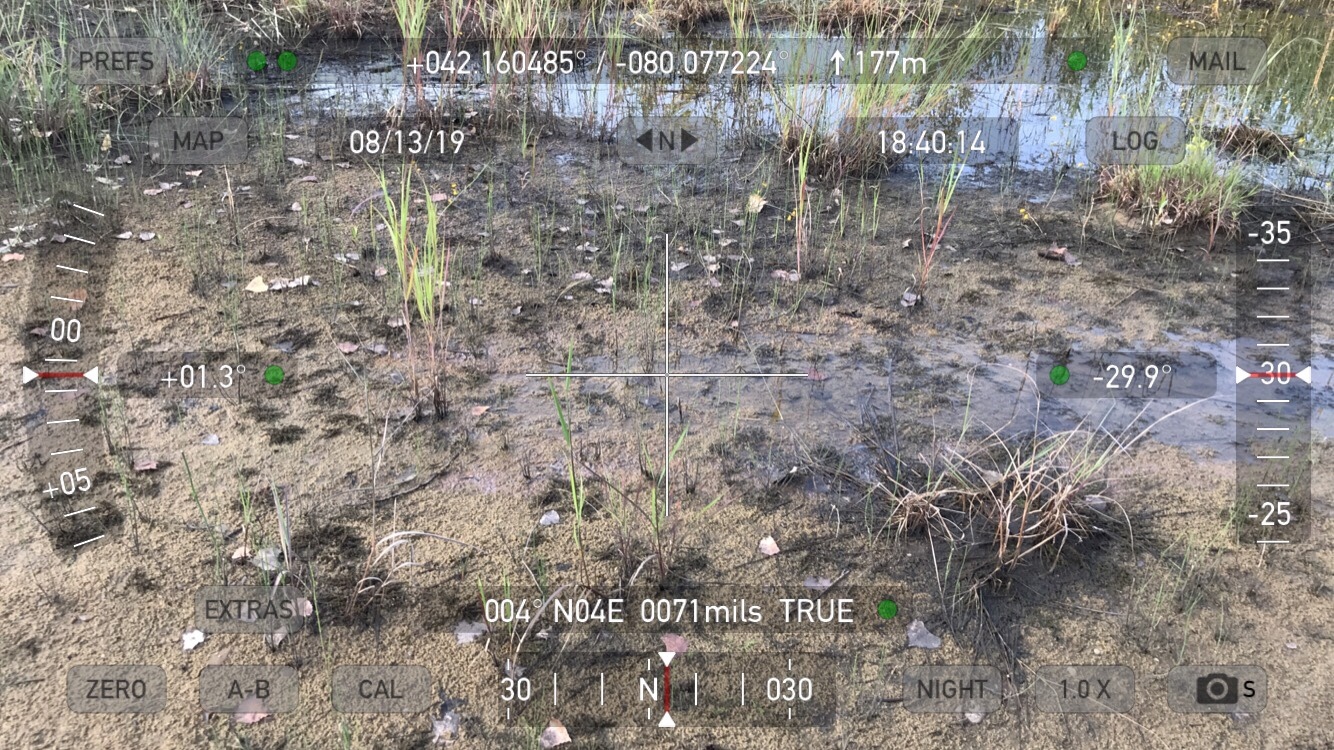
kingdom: Plantae
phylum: Tracheophyta
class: Polypodiopsida
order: Equisetales
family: Equisetaceae
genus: Equisetum
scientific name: Equisetum variegatum
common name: Variegated horsetail
